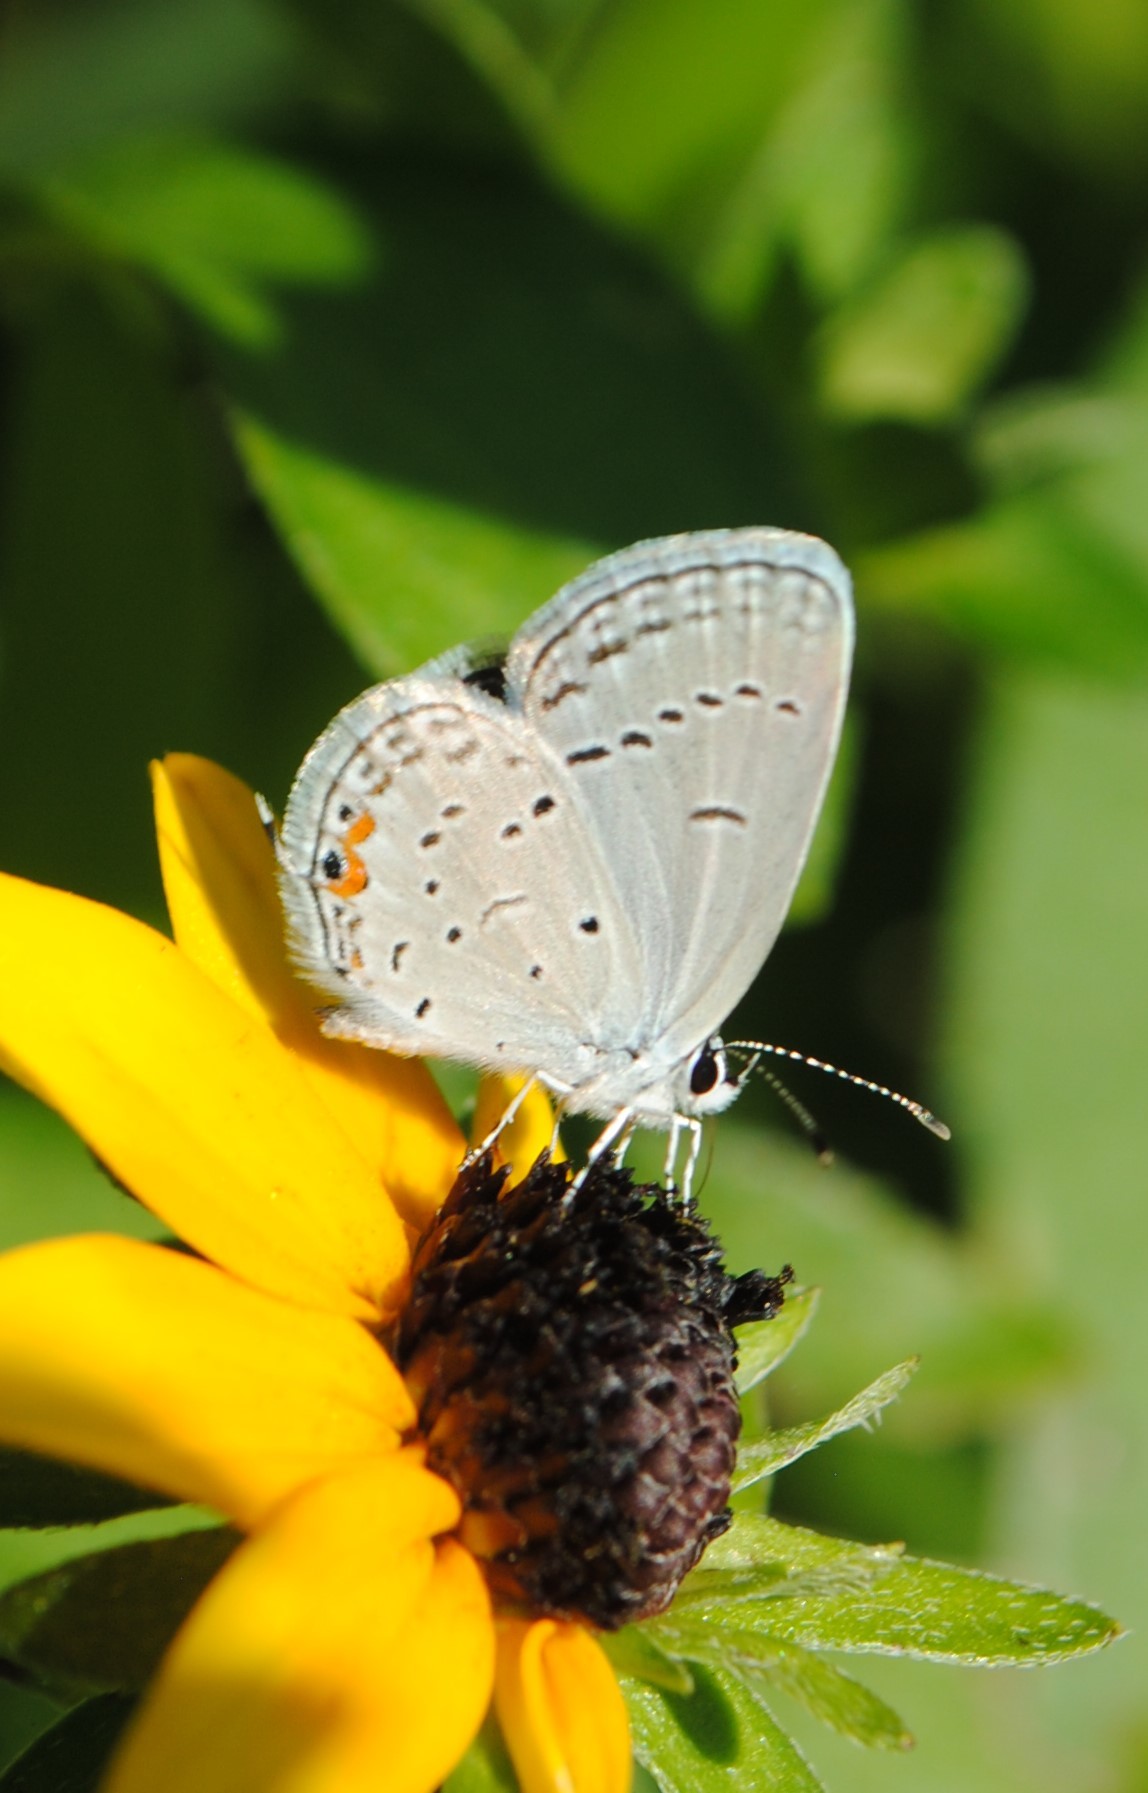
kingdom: Animalia
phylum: Arthropoda
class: Insecta
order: Lepidoptera
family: Lycaenidae
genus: Elkalyce
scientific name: Elkalyce comyntas
